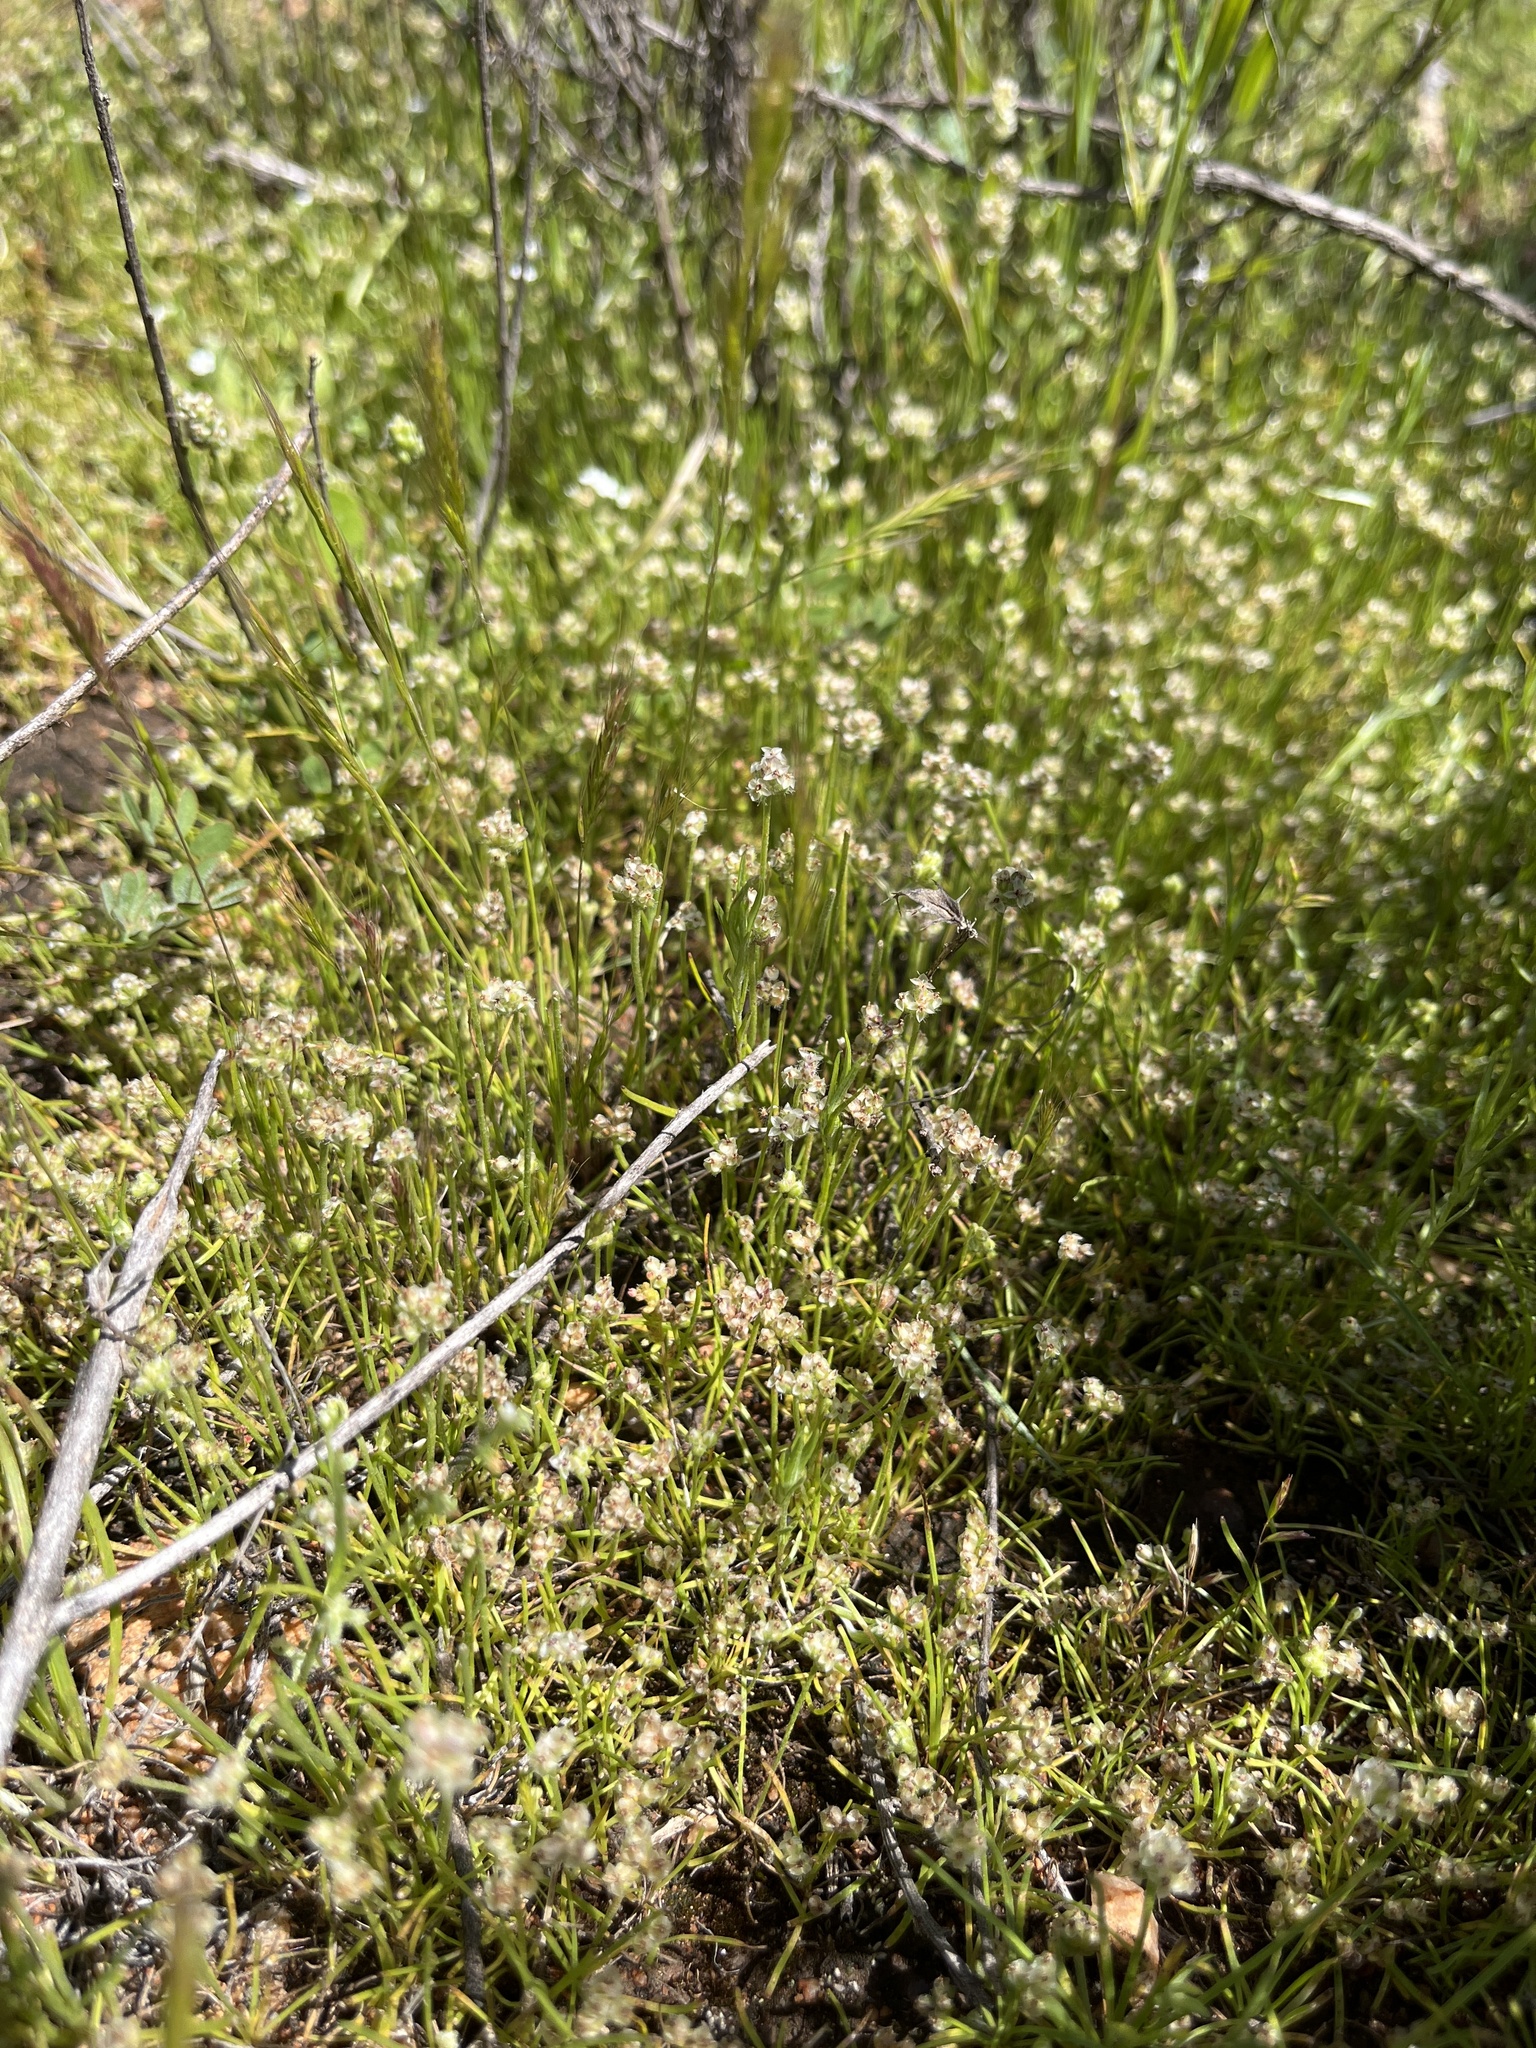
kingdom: Plantae
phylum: Tracheophyta
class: Magnoliopsida
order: Lamiales
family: Plantaginaceae
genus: Plantago
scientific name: Plantago erecta
